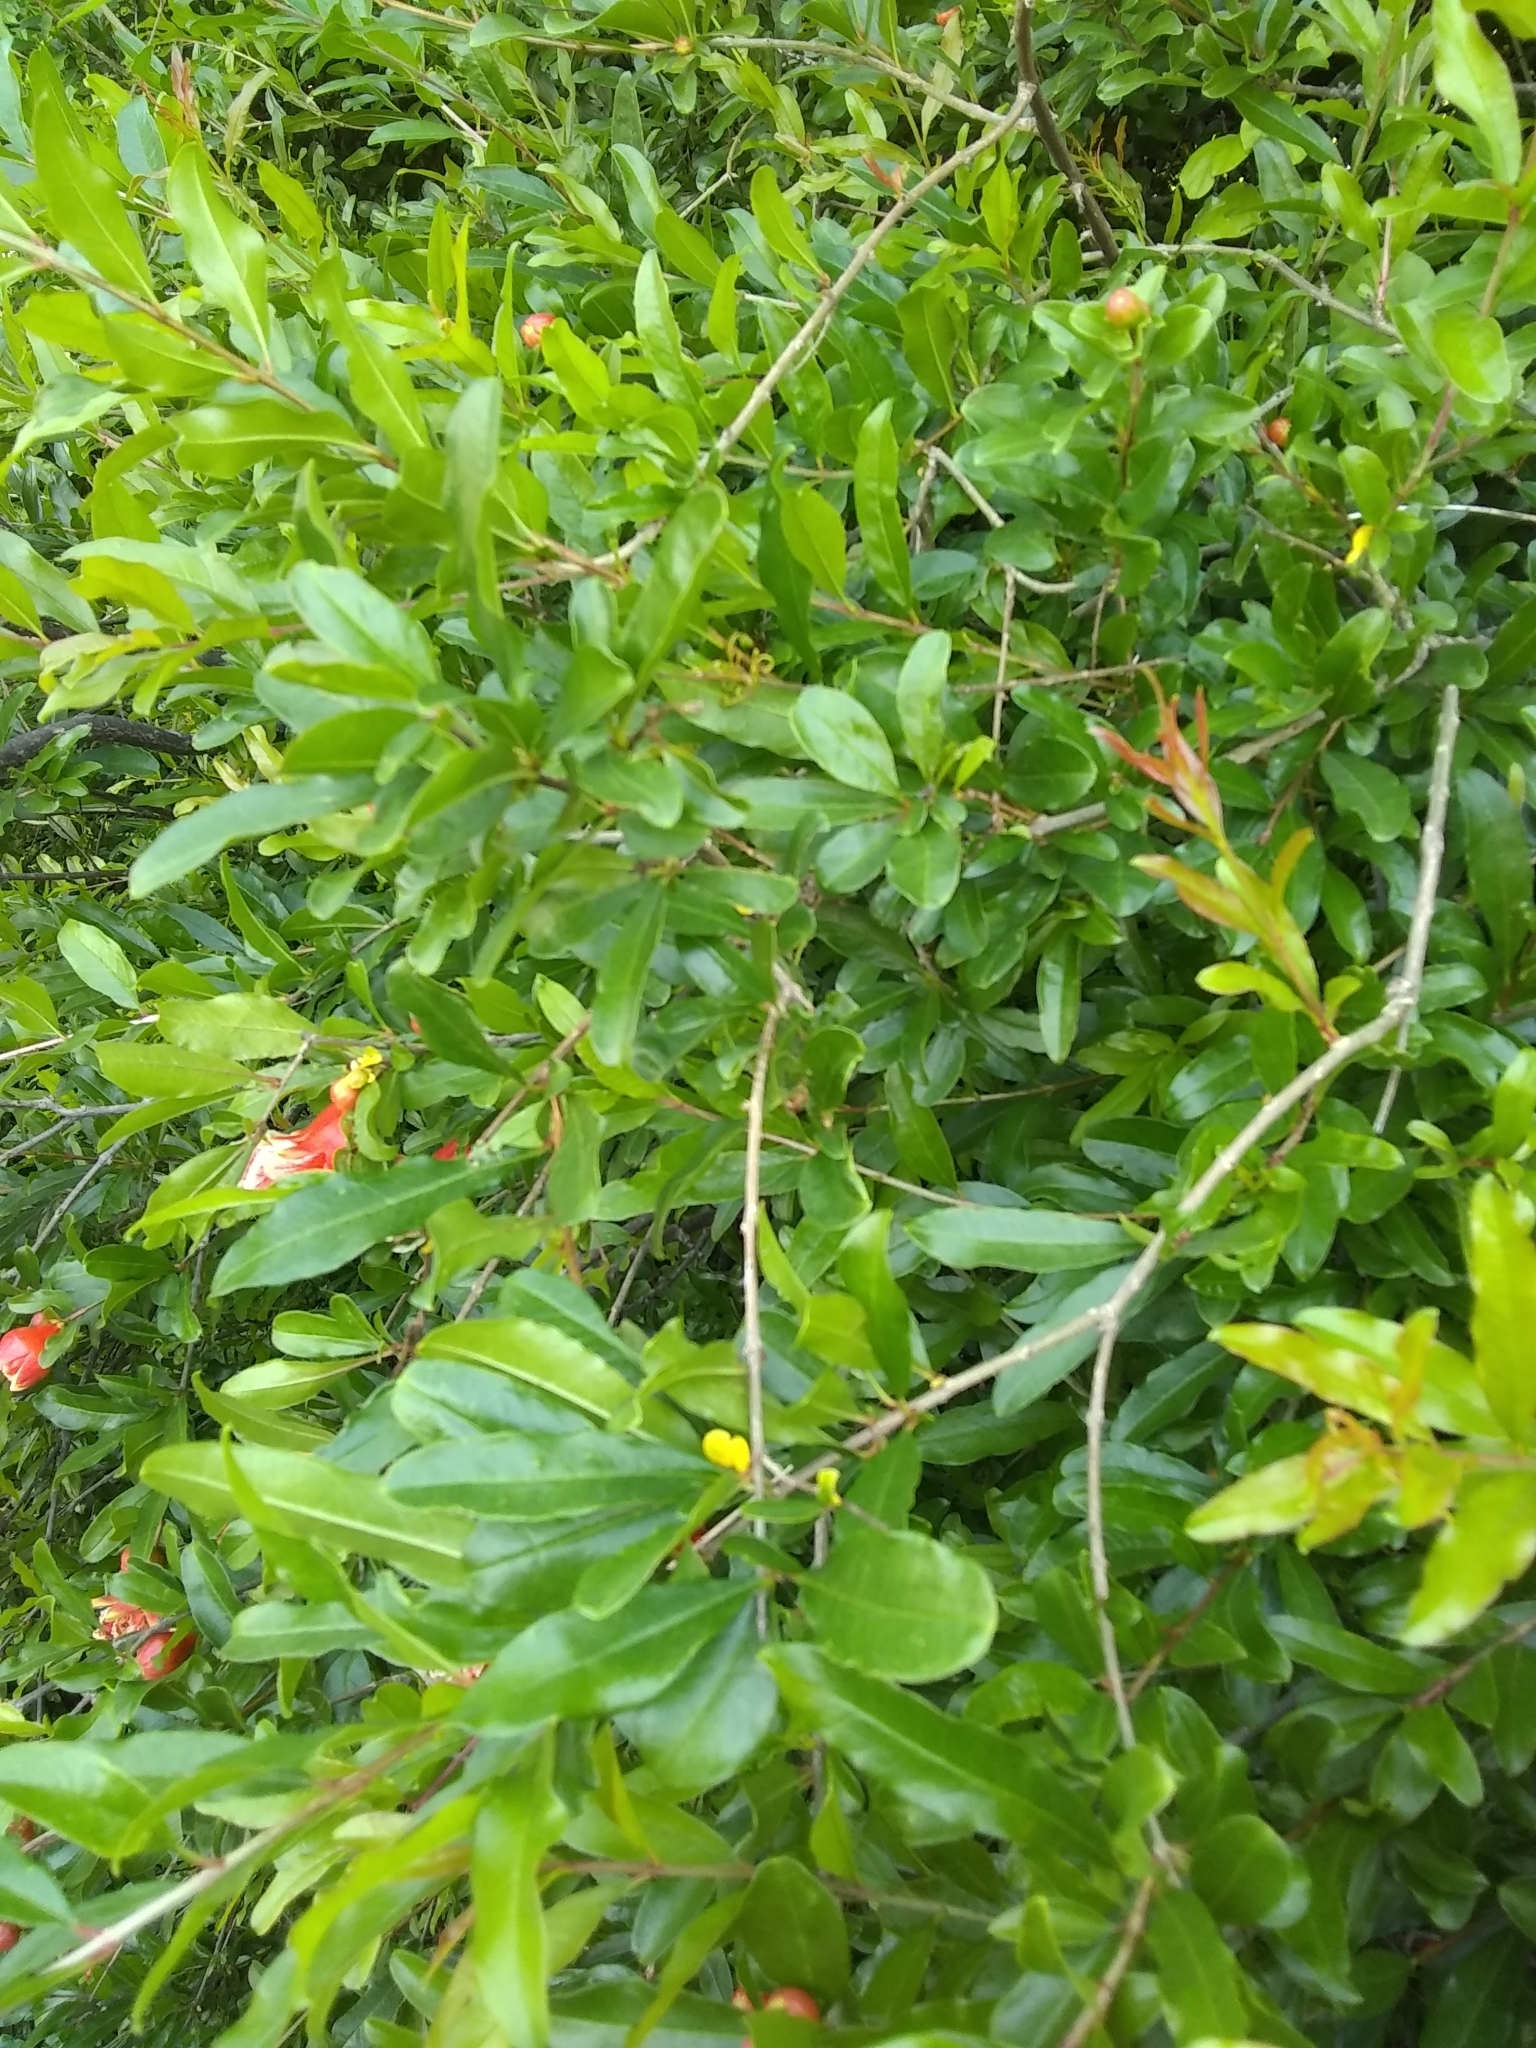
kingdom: Plantae
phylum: Tracheophyta
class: Magnoliopsida
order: Myrtales
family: Lythraceae
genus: Punica
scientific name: Punica granatum
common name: Pomegranate
